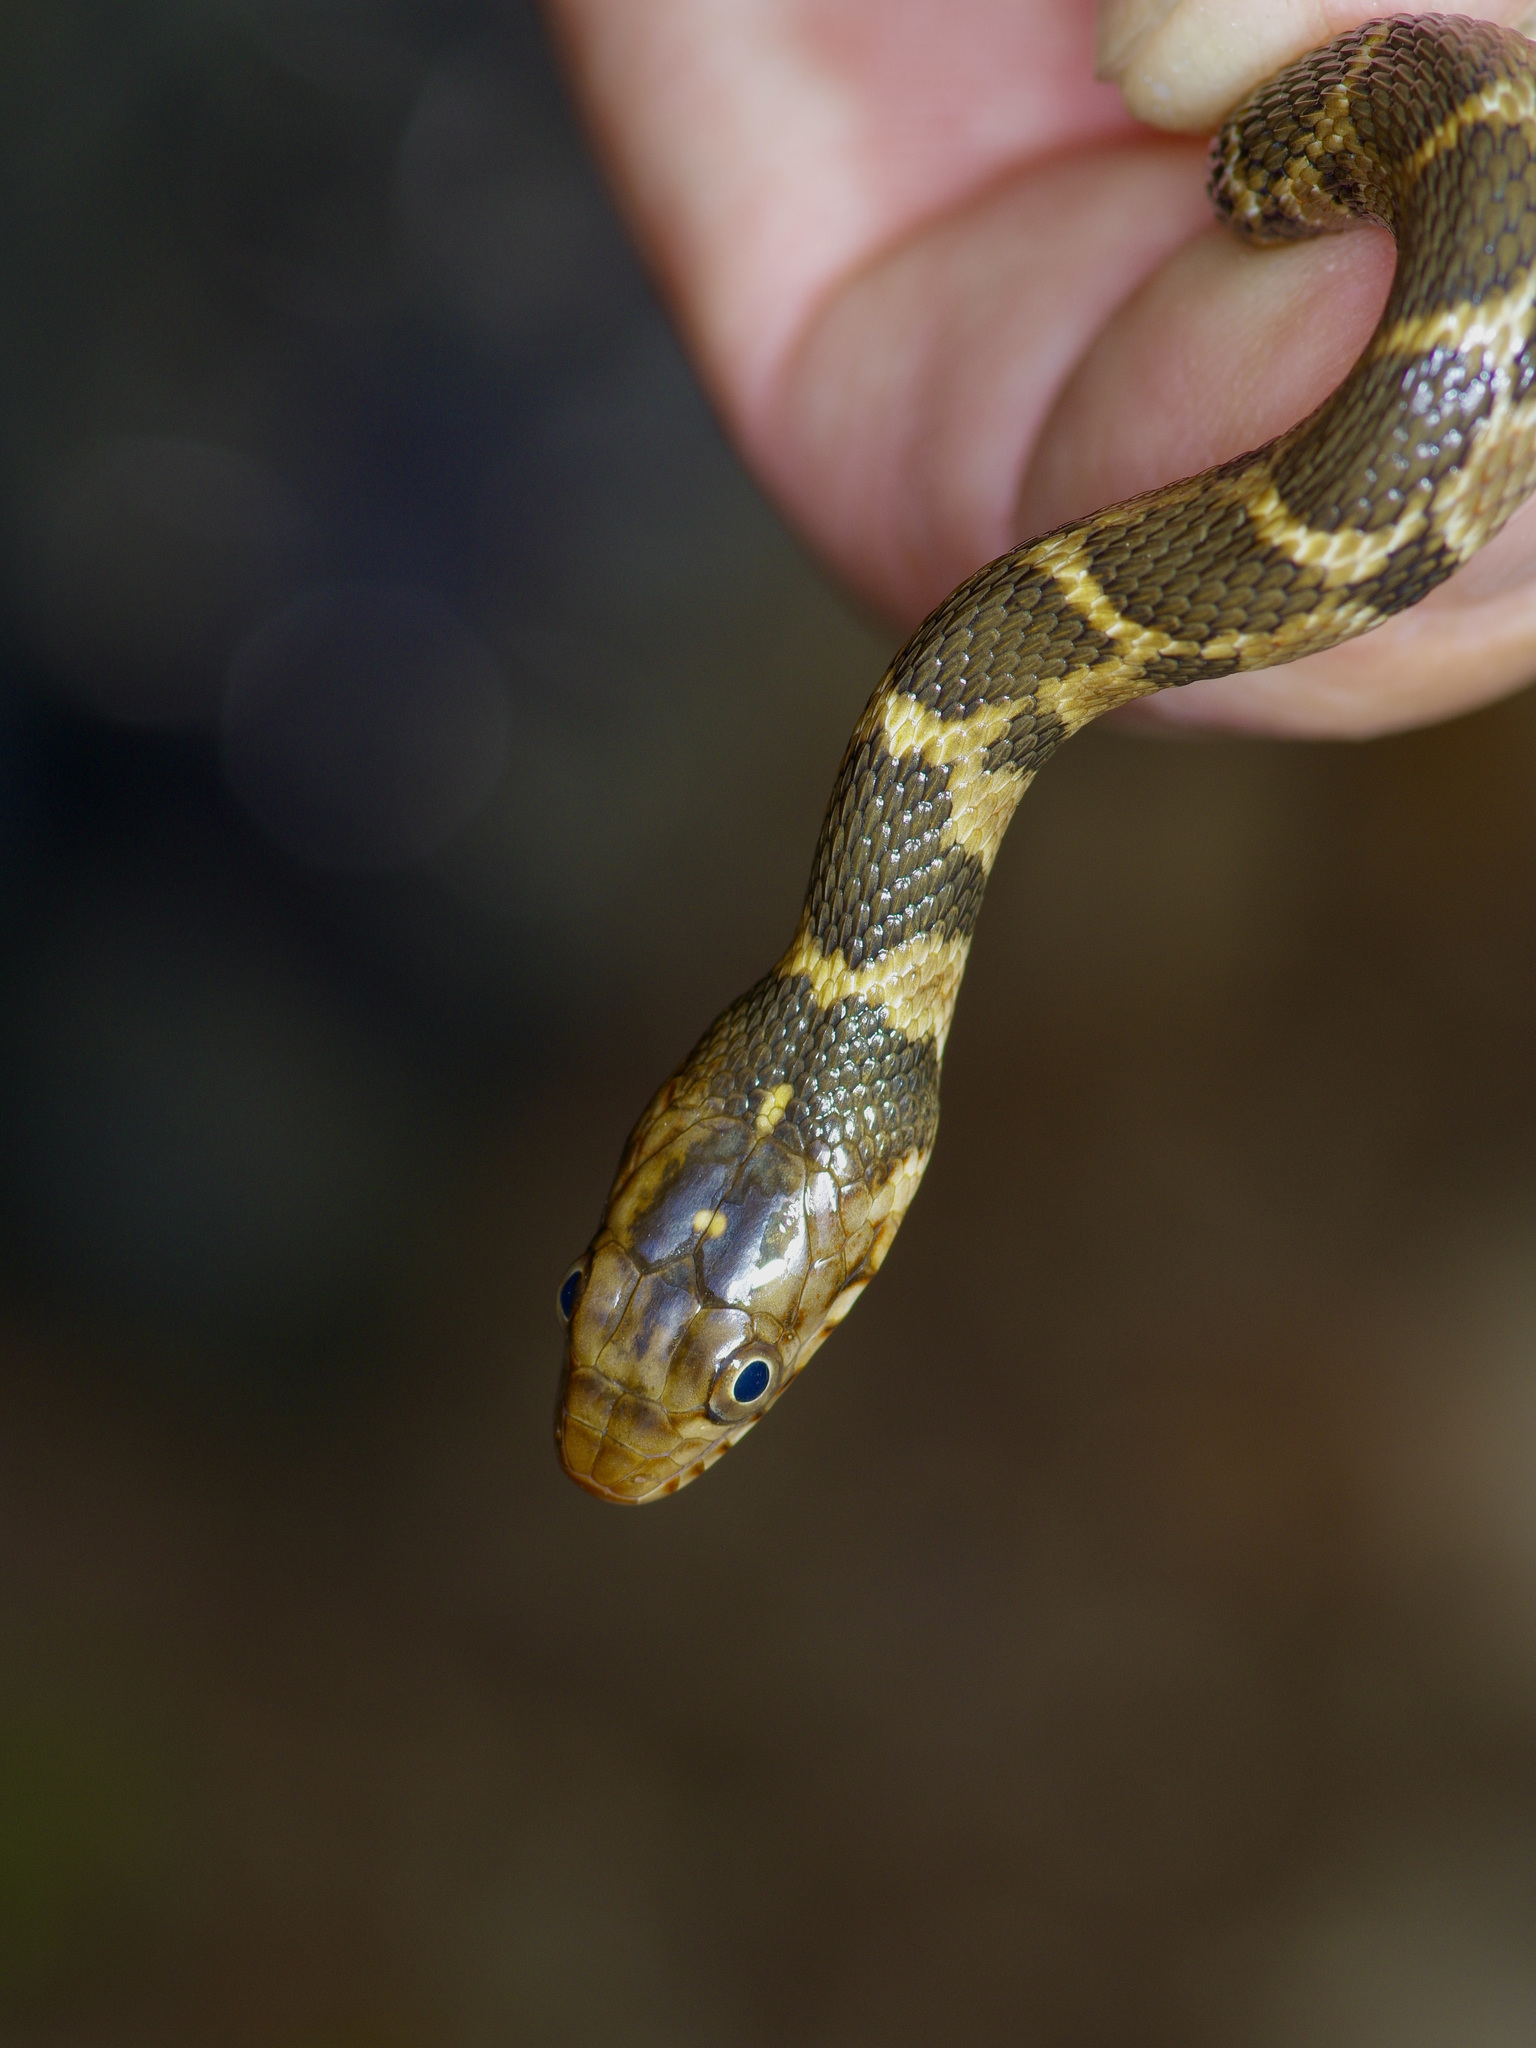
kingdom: Animalia
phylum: Chordata
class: Squamata
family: Colubridae
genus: Nerodia
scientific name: Nerodia erythrogaster
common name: Plainbelly water snake
